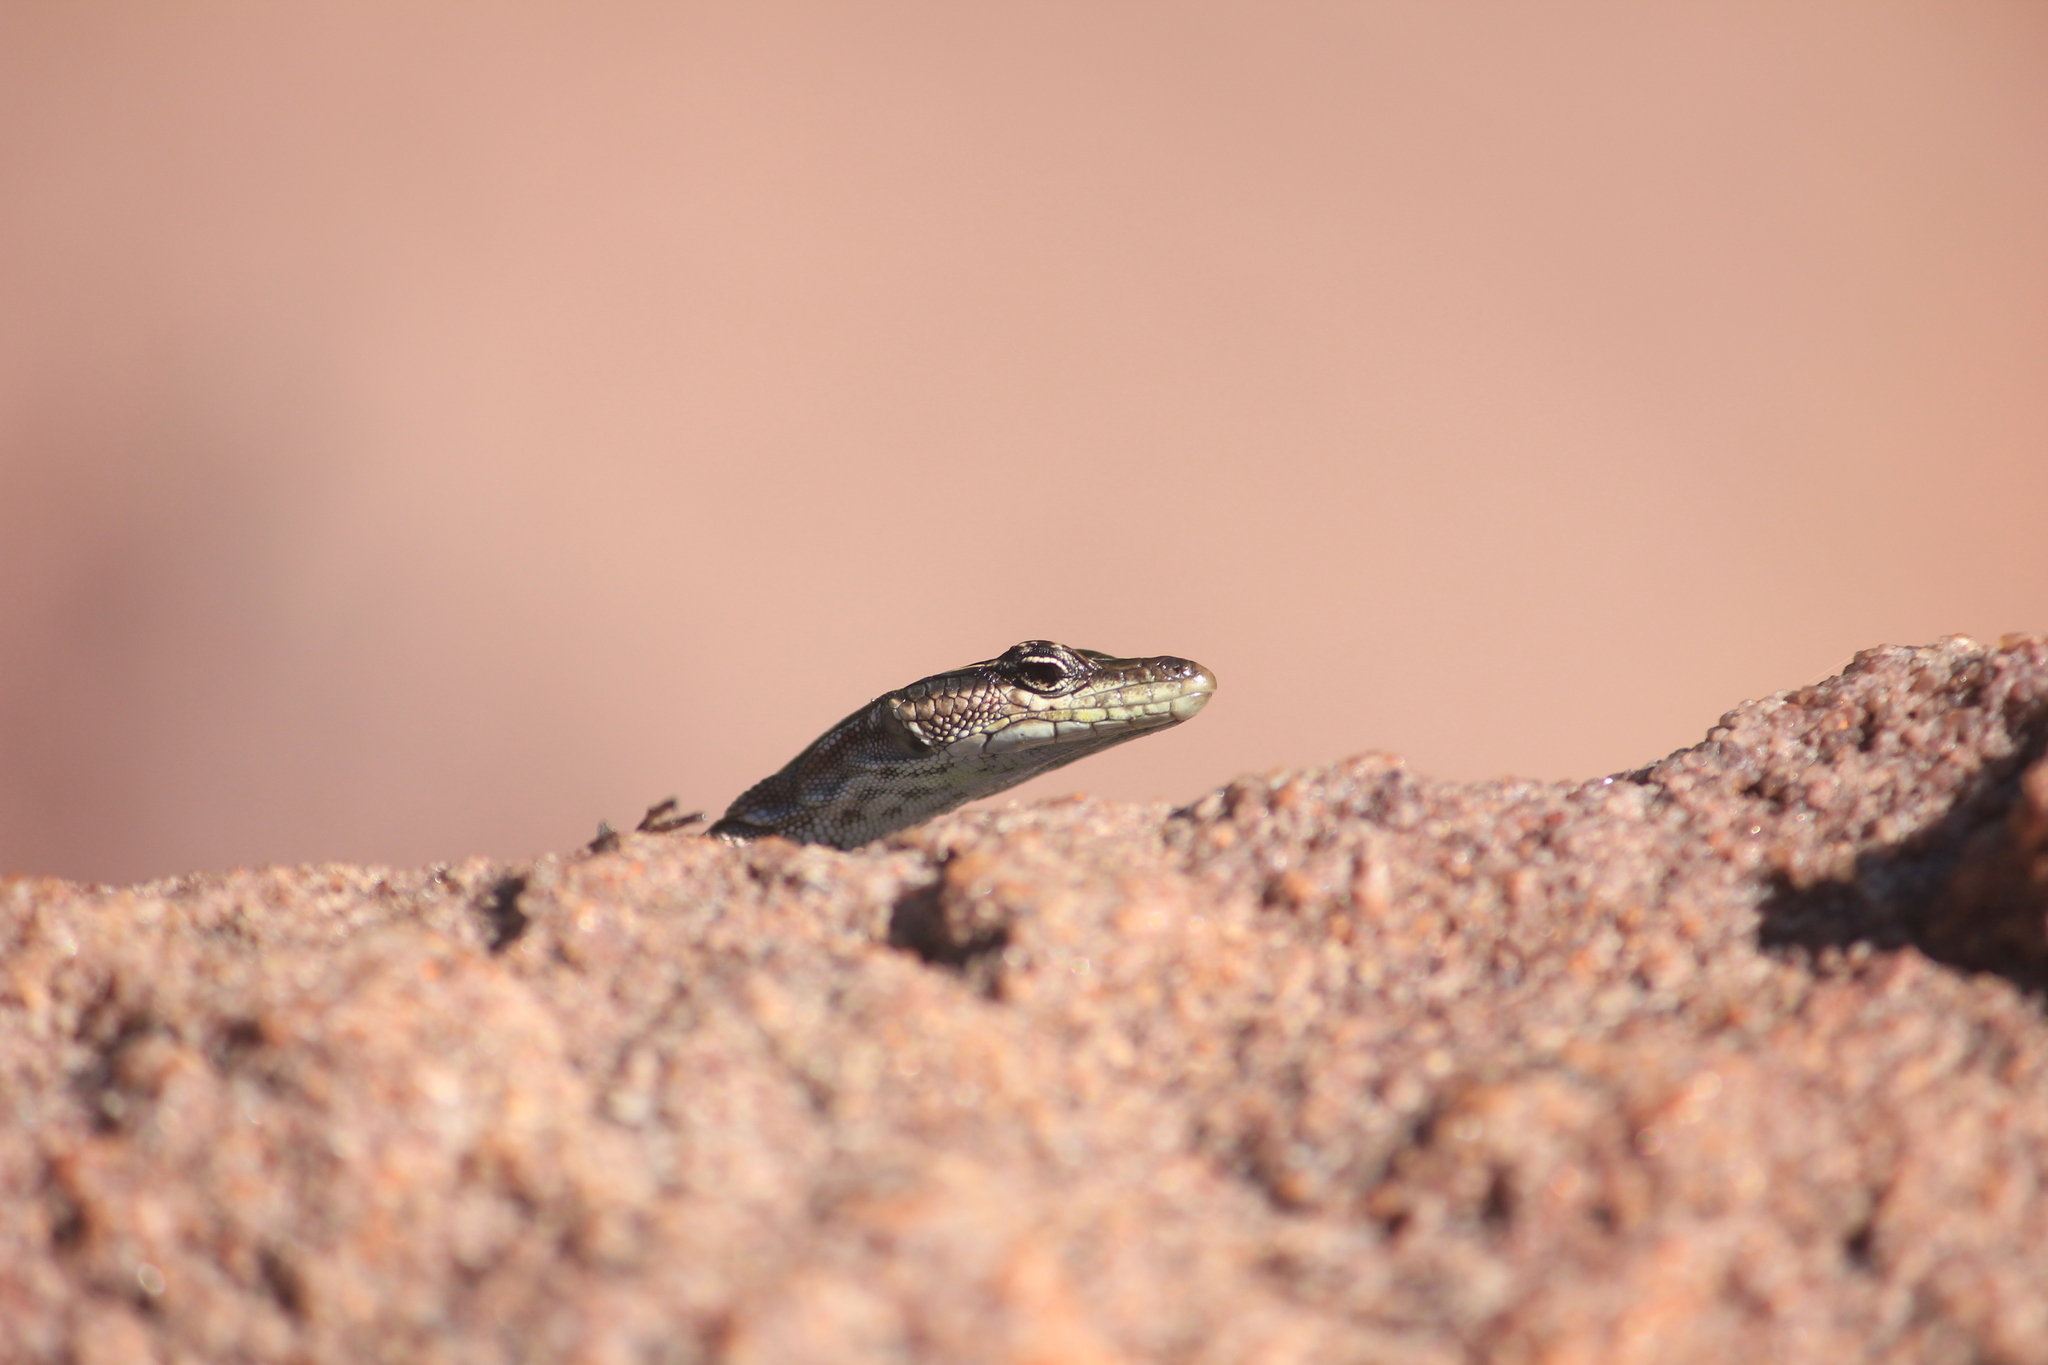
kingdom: Animalia
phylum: Chordata
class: Squamata
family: Cordylidae
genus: Platysaurus
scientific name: Platysaurus relictus
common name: Soutpansberg flat lizard
